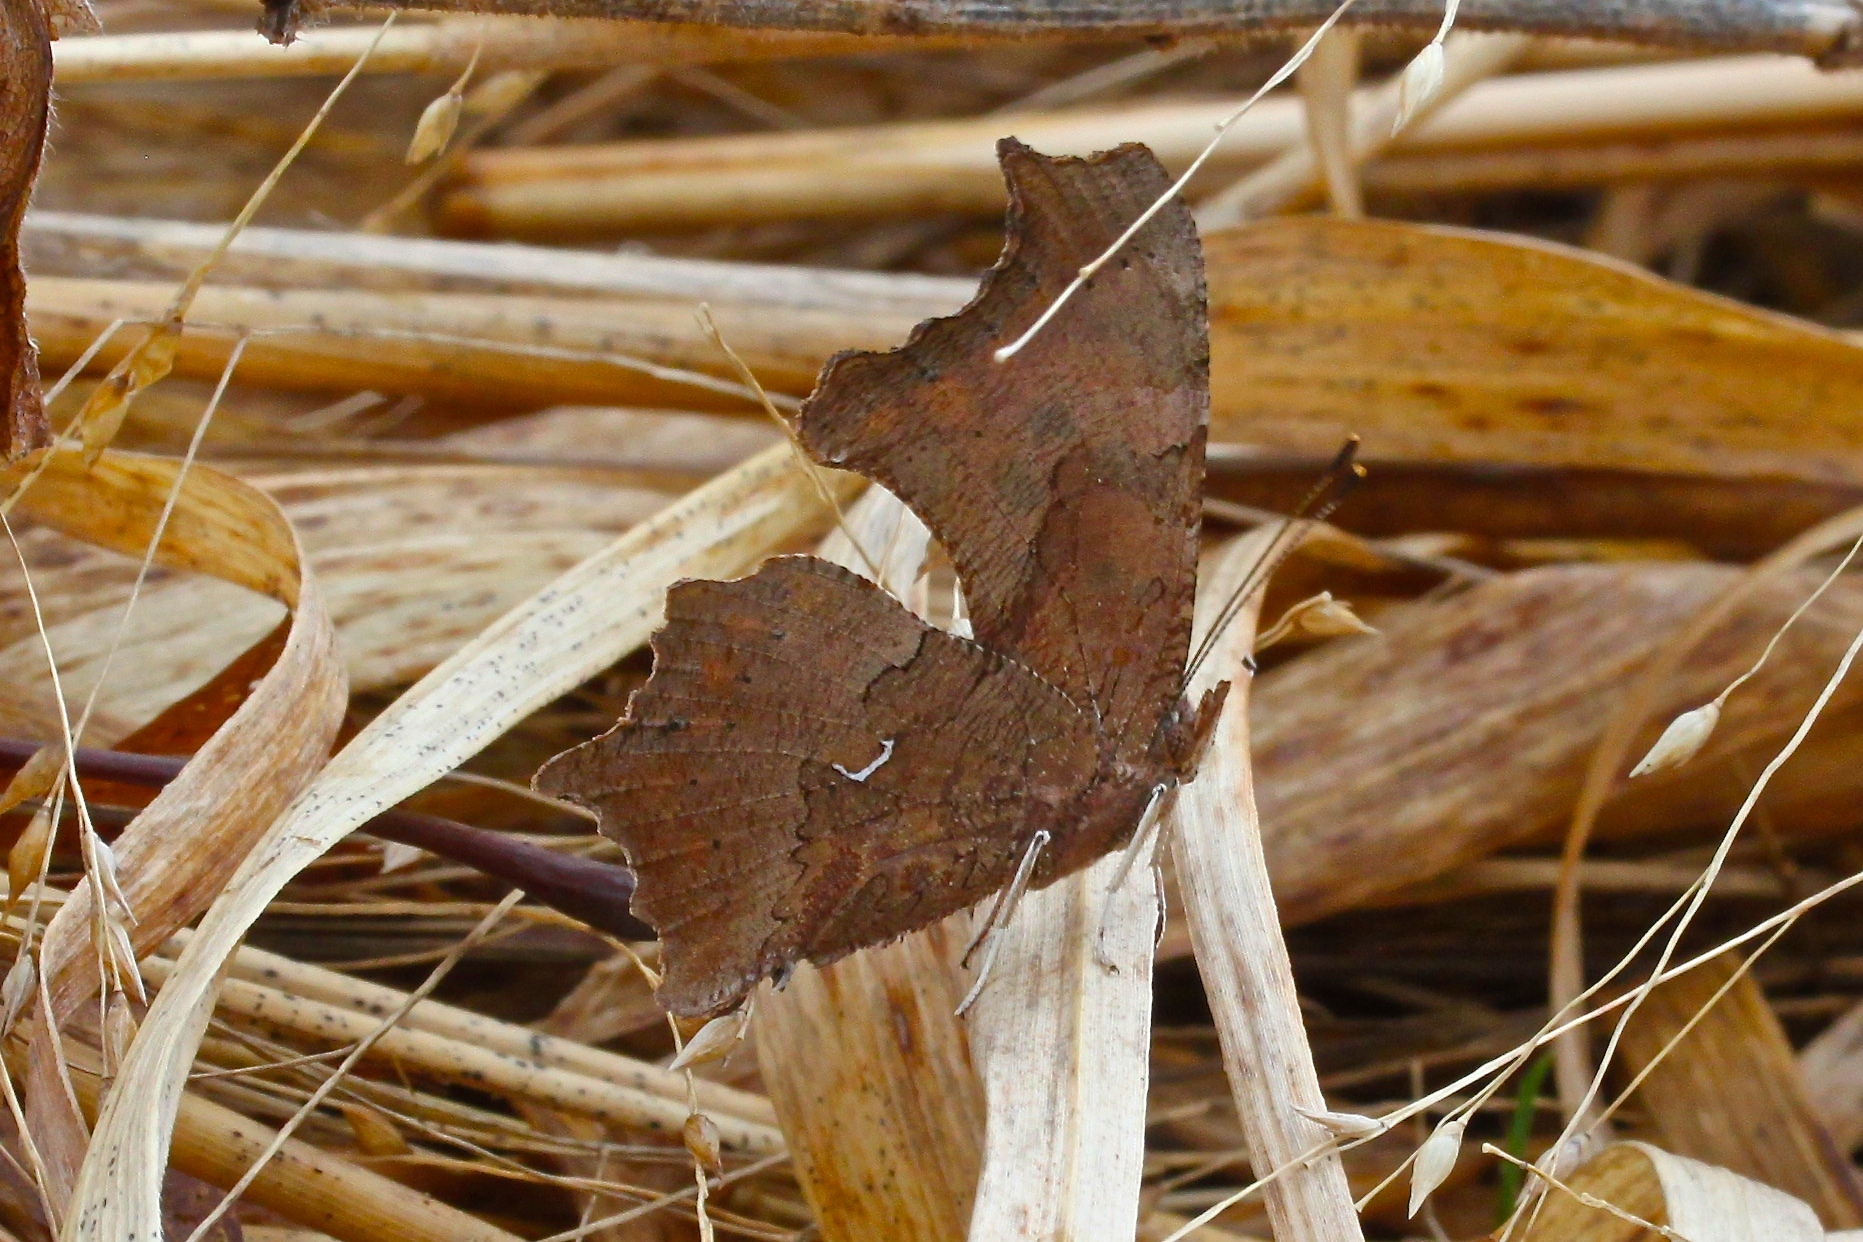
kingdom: Animalia
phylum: Arthropoda
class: Insecta
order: Lepidoptera
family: Nymphalidae
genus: Polygonia
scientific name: Polygonia comma
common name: Eastern comma
